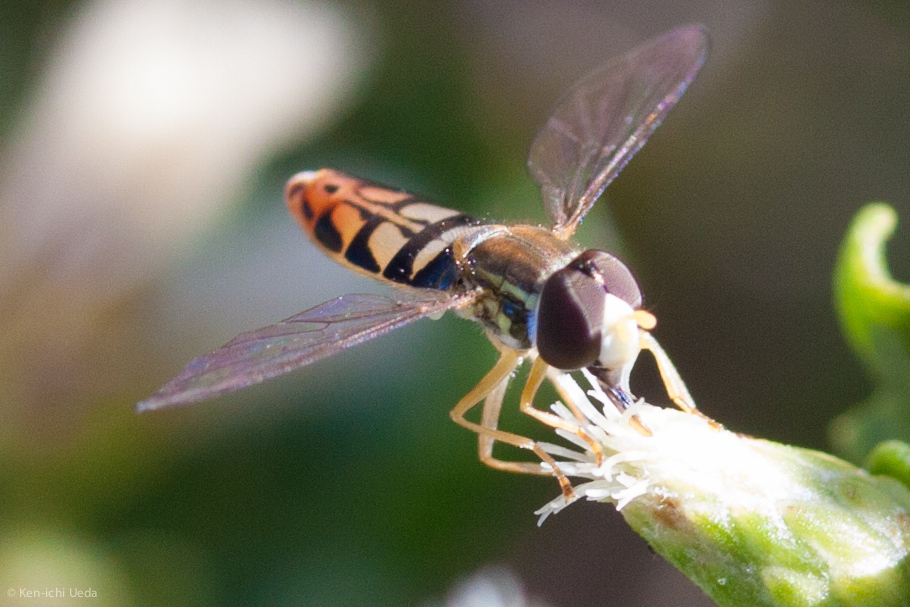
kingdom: Animalia
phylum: Arthropoda
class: Insecta
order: Diptera
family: Syrphidae
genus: Toxomerus
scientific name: Toxomerus marginatus
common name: Syrphid fly
